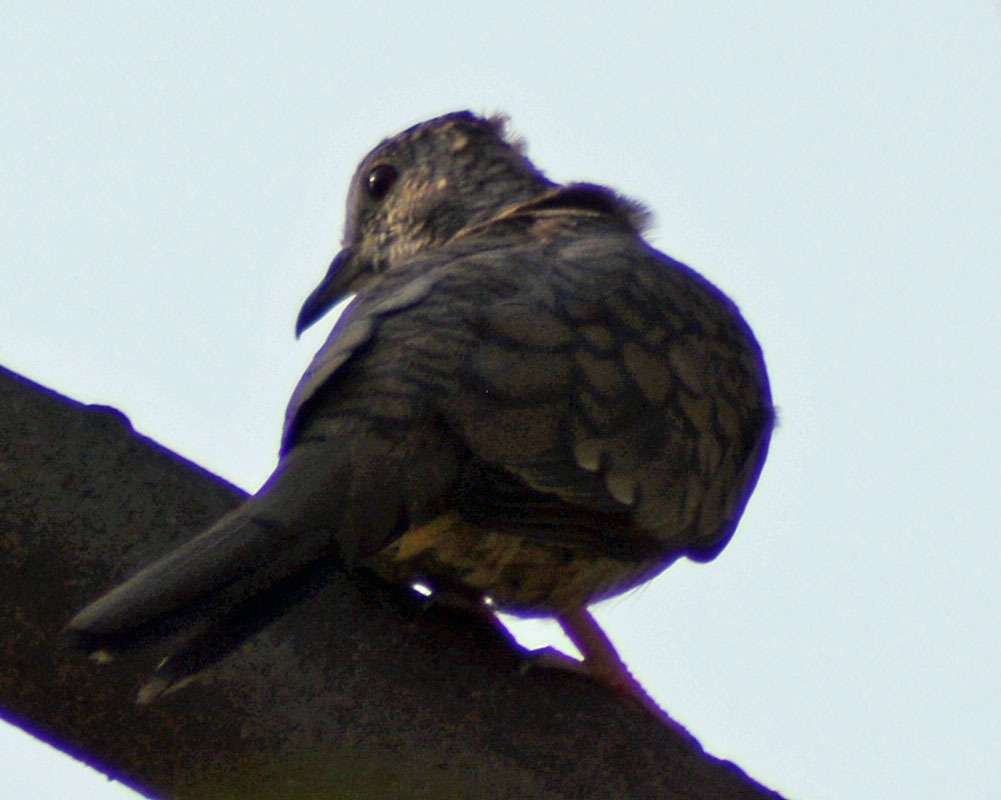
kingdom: Animalia
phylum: Chordata
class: Aves
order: Columbiformes
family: Columbidae
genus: Columbina
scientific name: Columbina inca
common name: Inca dove
